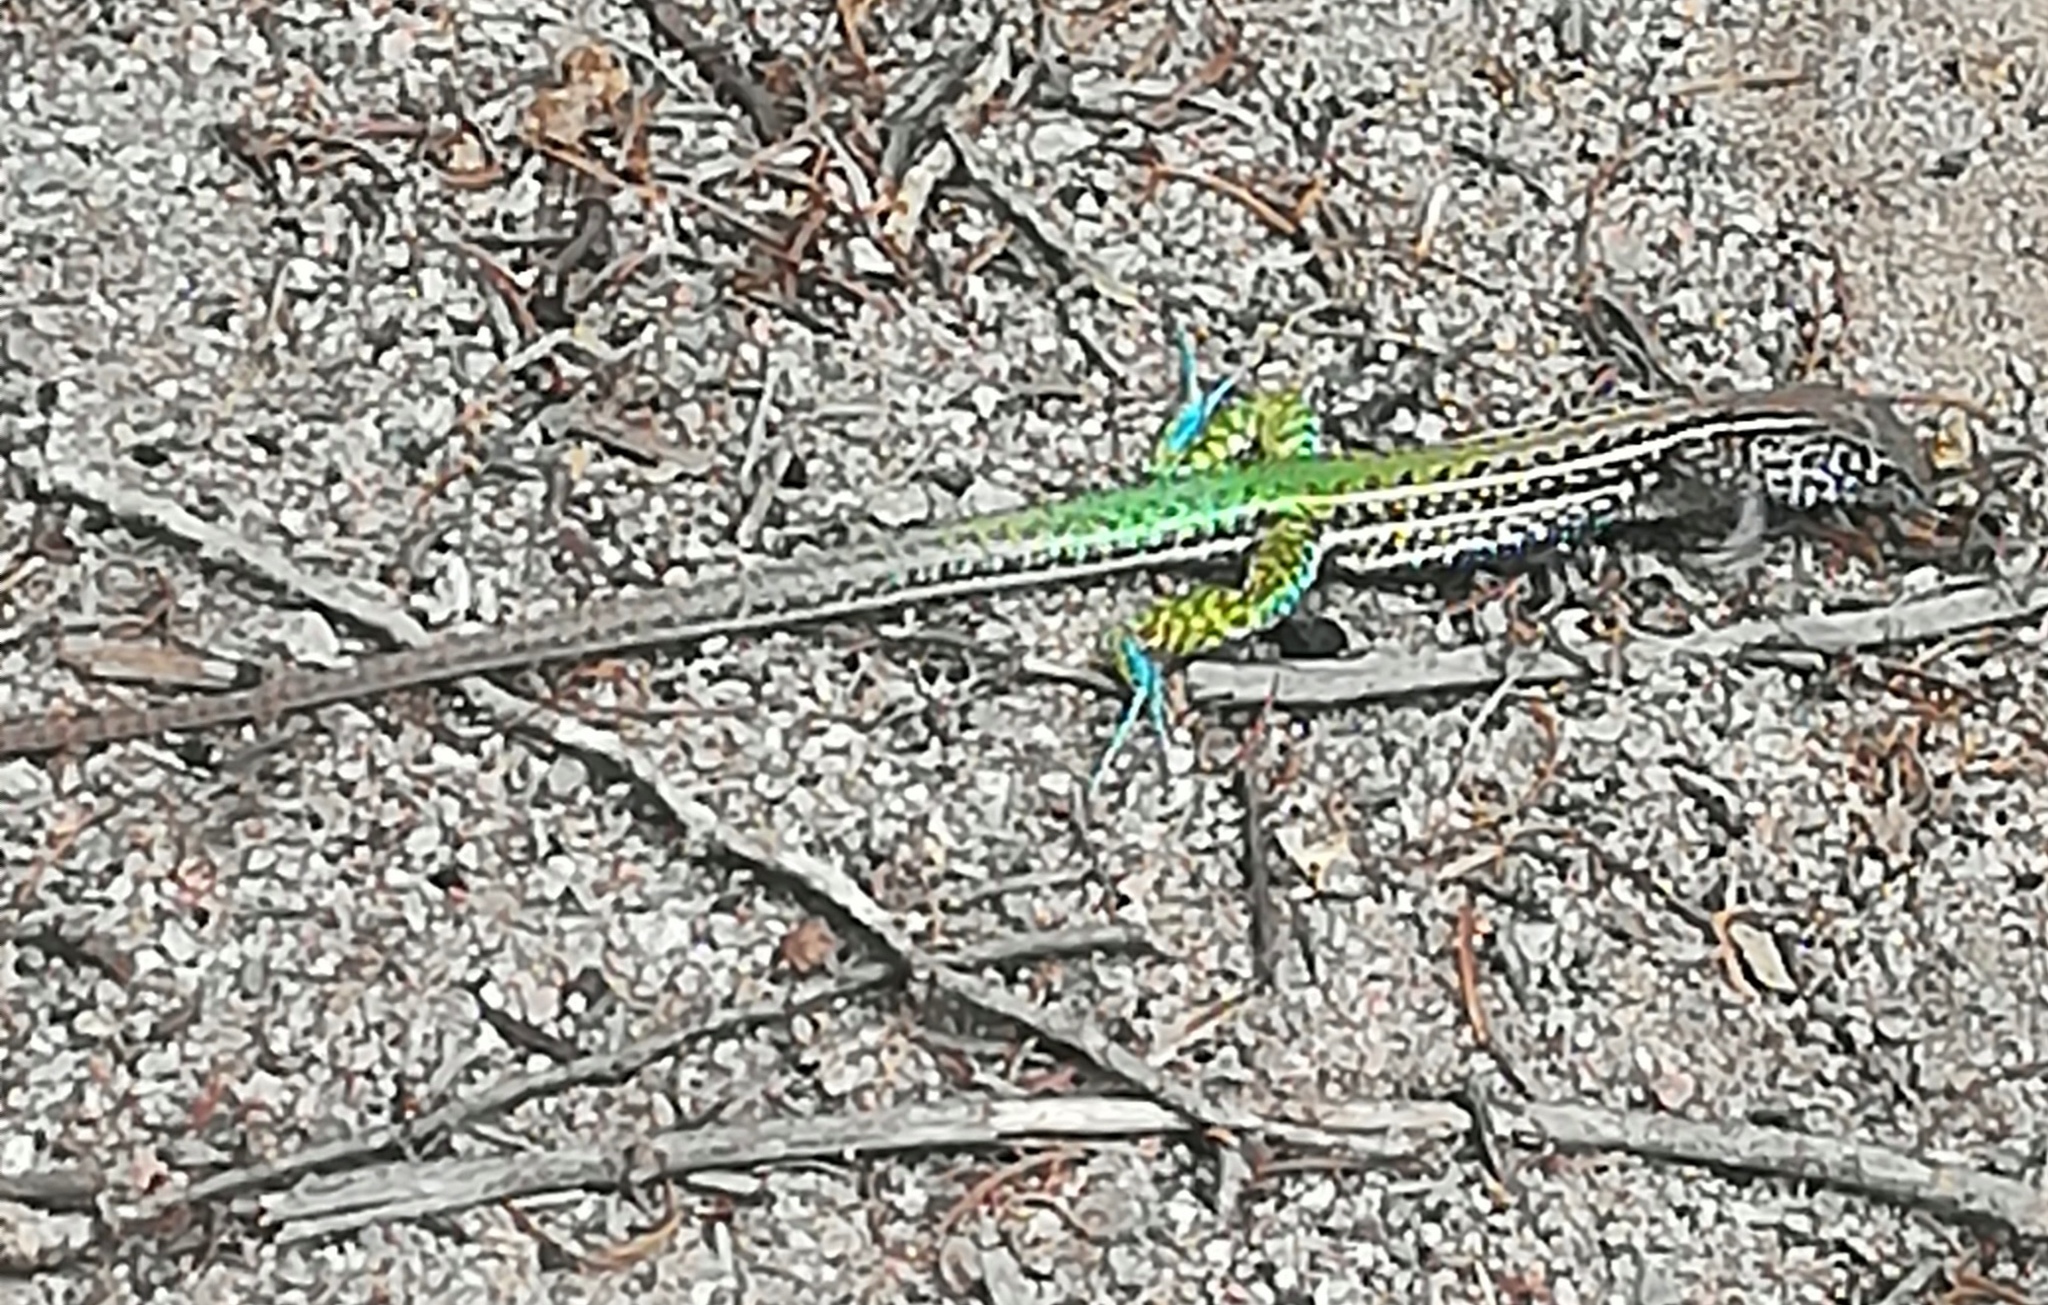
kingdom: Animalia
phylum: Chordata
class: Squamata
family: Teiidae
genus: Teius
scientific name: Teius teyou
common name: Four-toed tegu
